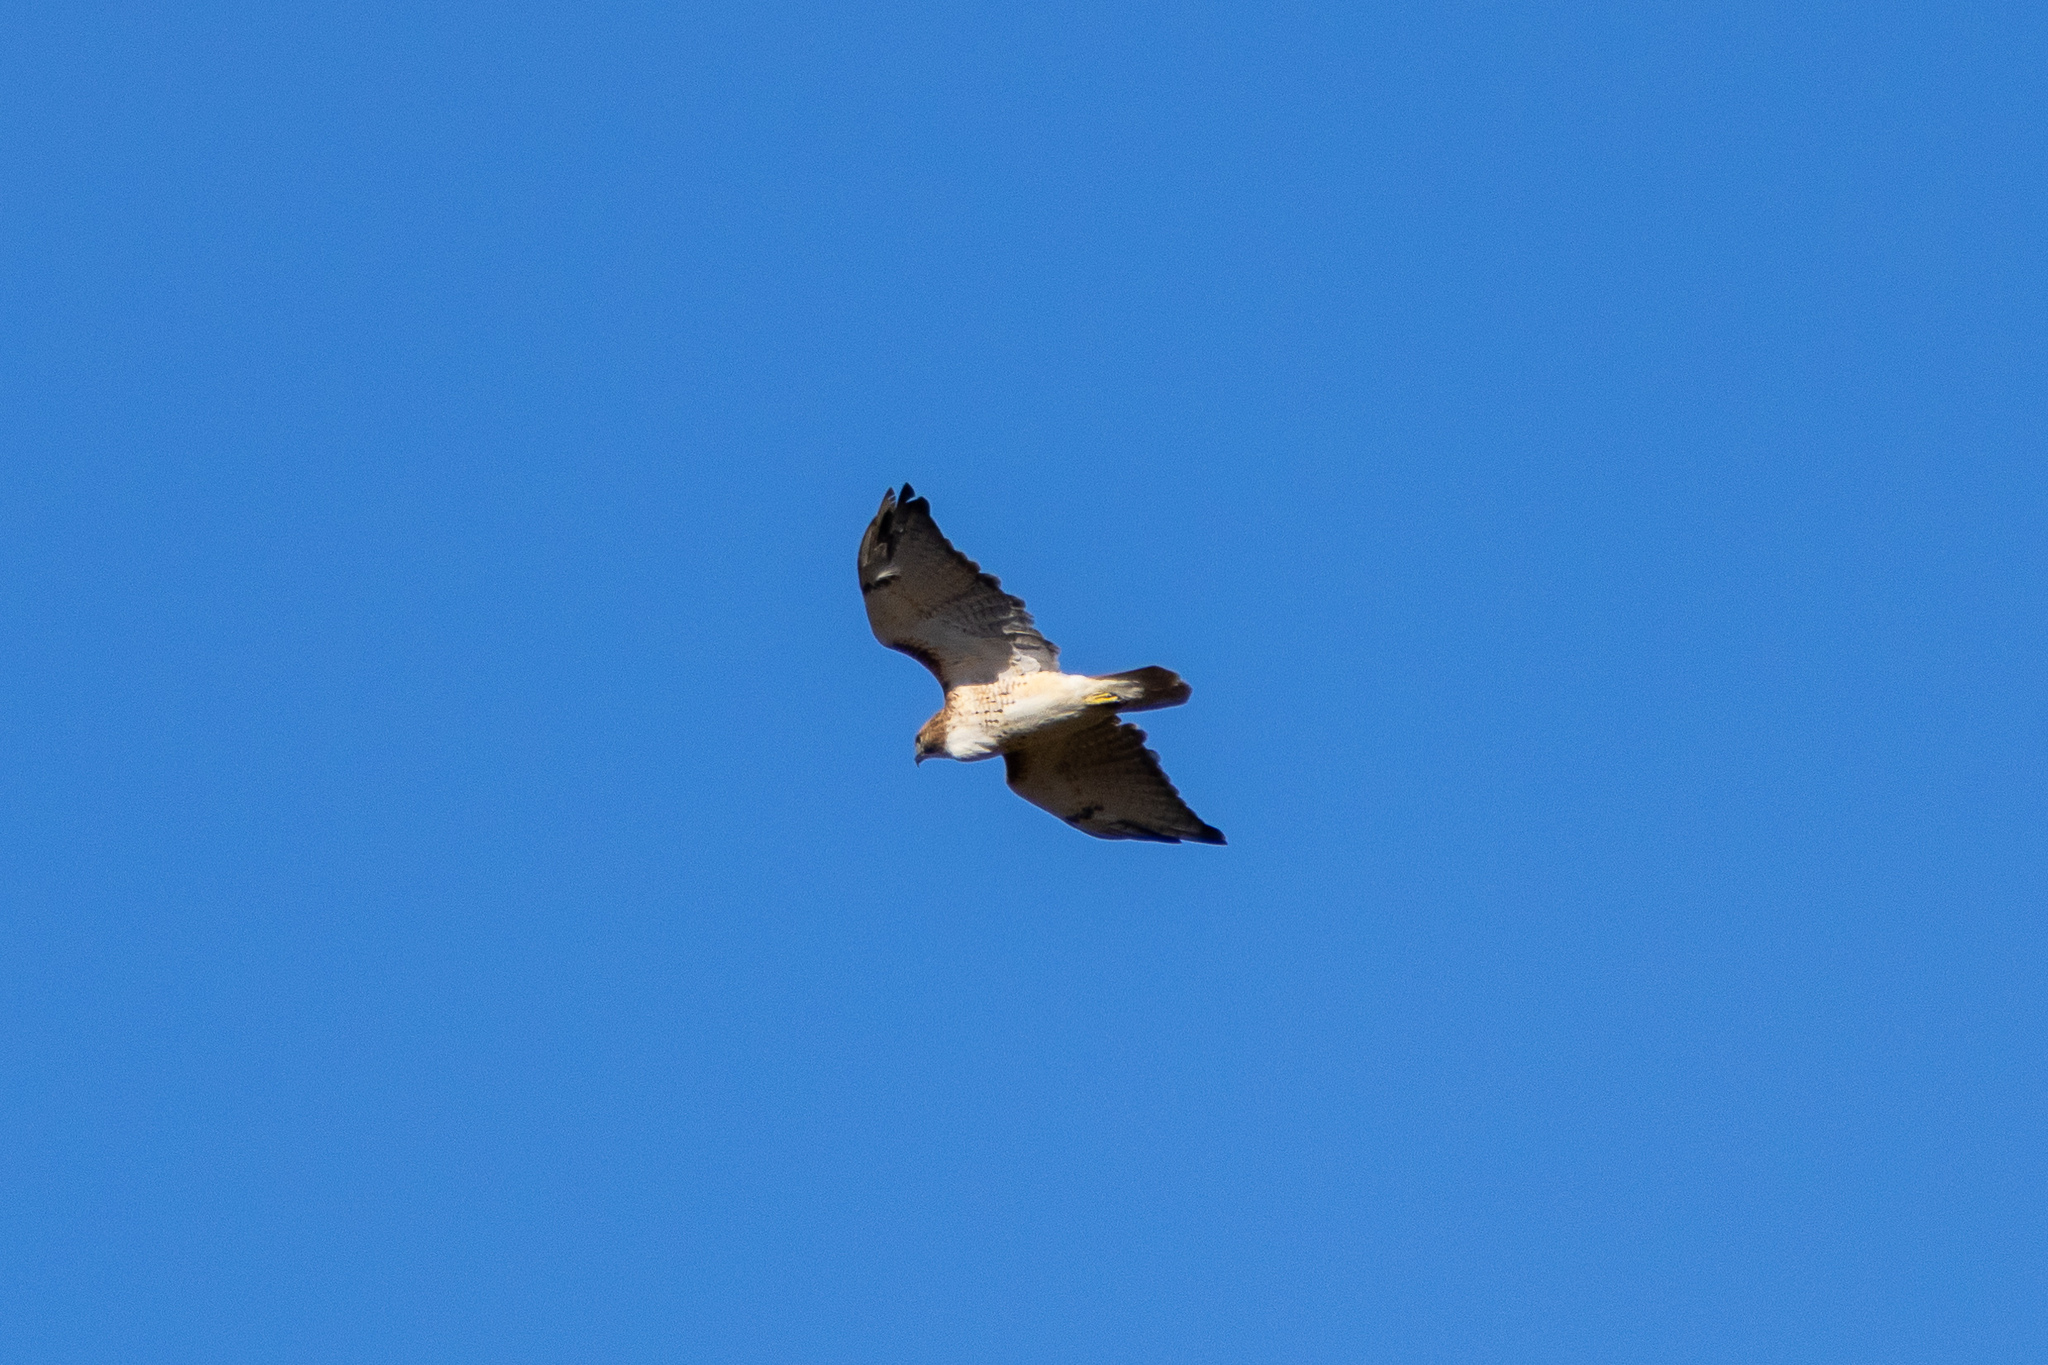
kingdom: Animalia
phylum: Chordata
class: Aves
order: Accipitriformes
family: Accipitridae
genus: Buteo
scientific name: Buteo jamaicensis
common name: Red-tailed hawk
